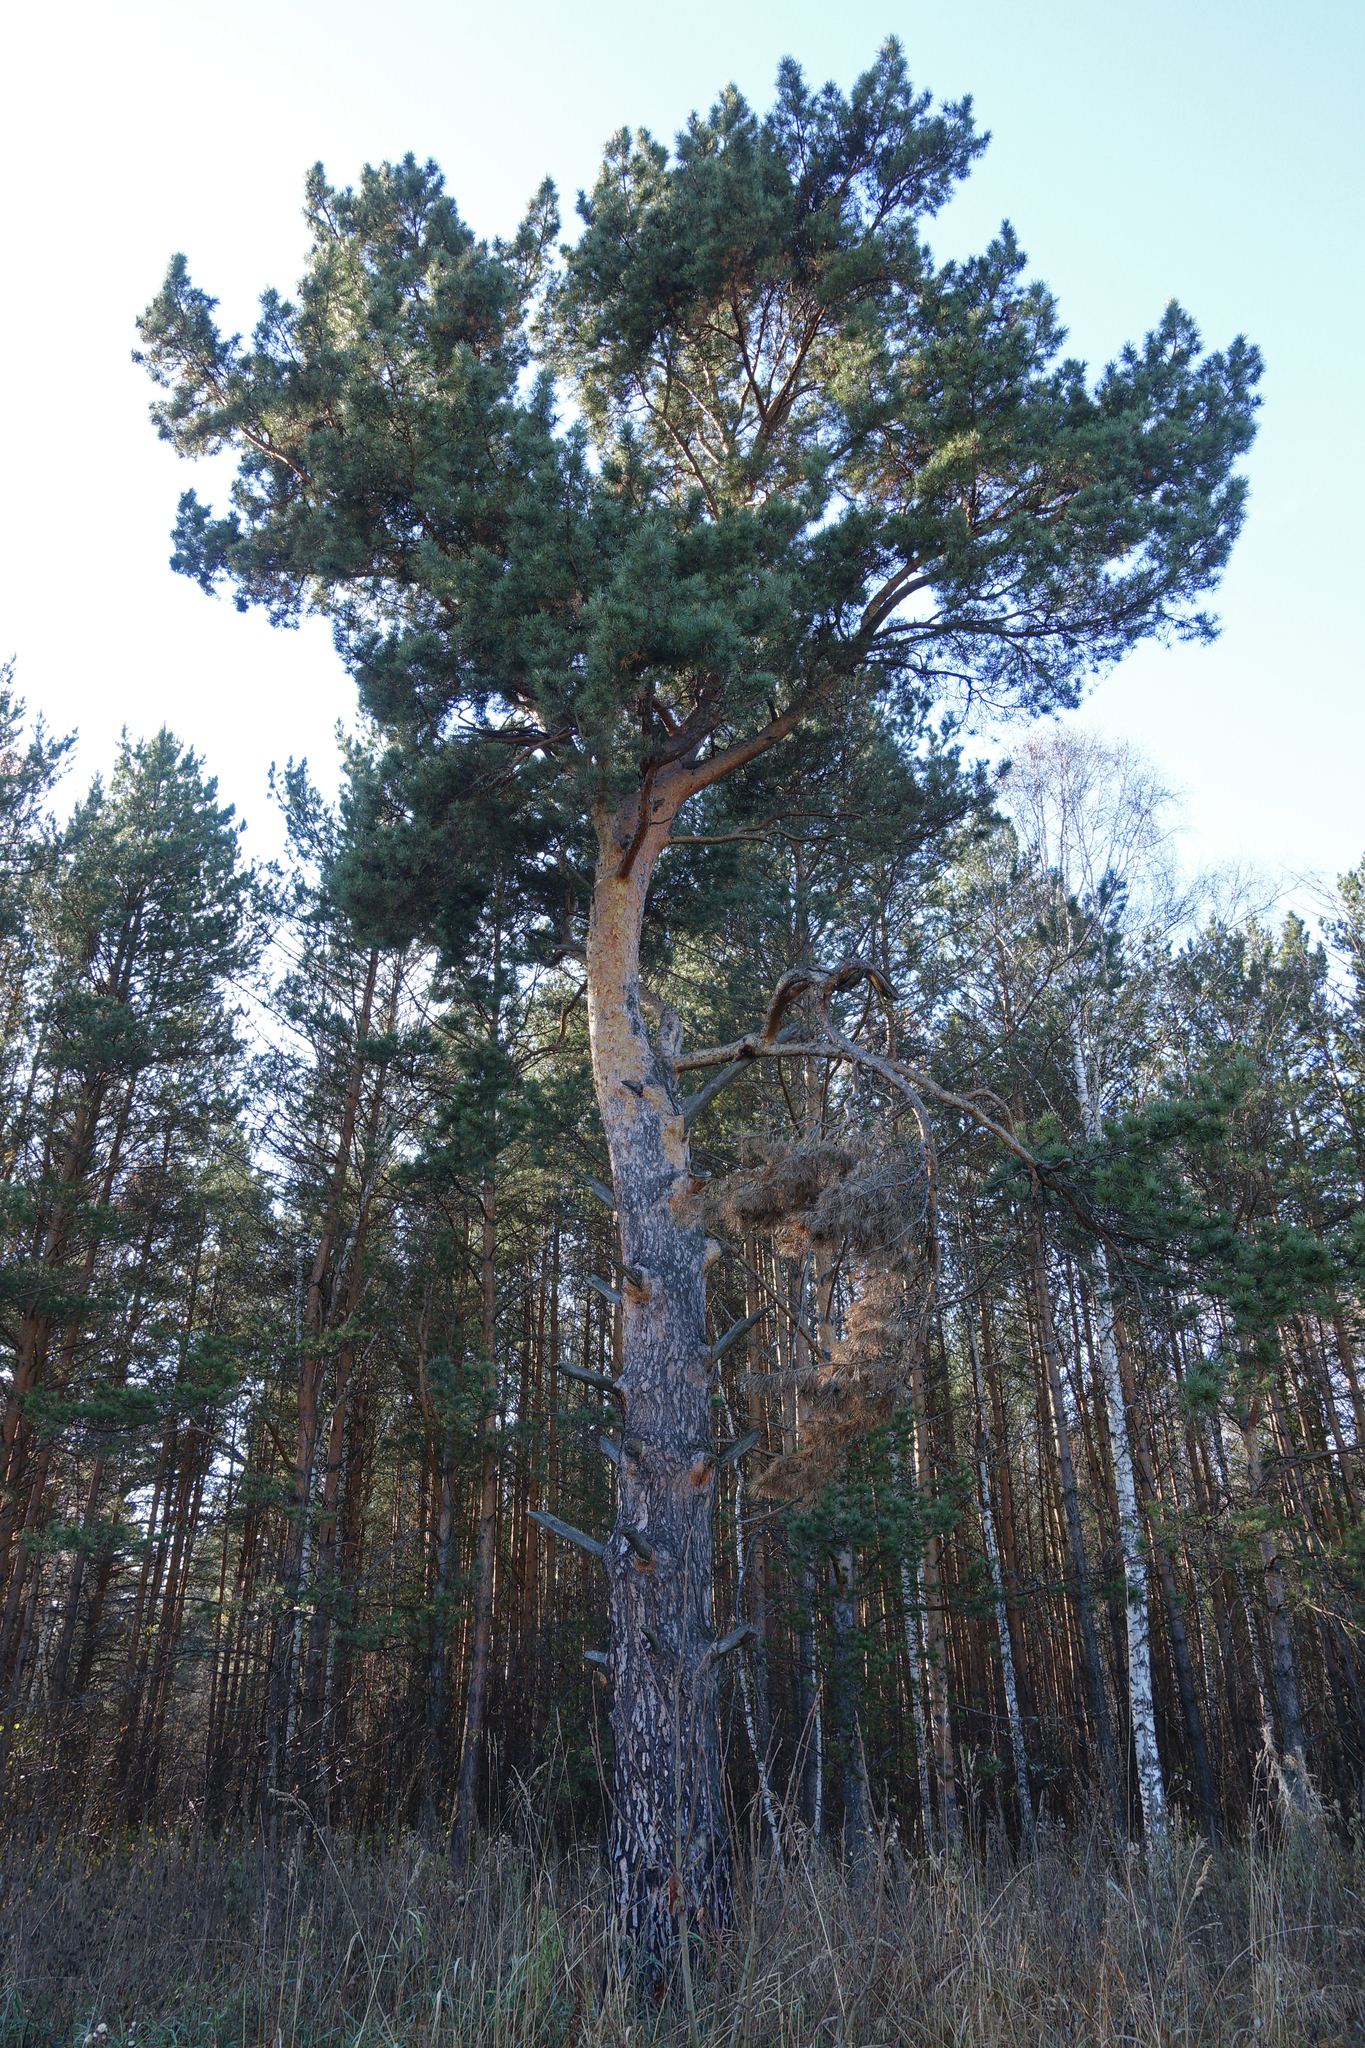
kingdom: Plantae
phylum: Tracheophyta
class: Pinopsida
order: Pinales
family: Pinaceae
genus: Pinus
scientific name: Pinus sylvestris
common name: Scots pine
